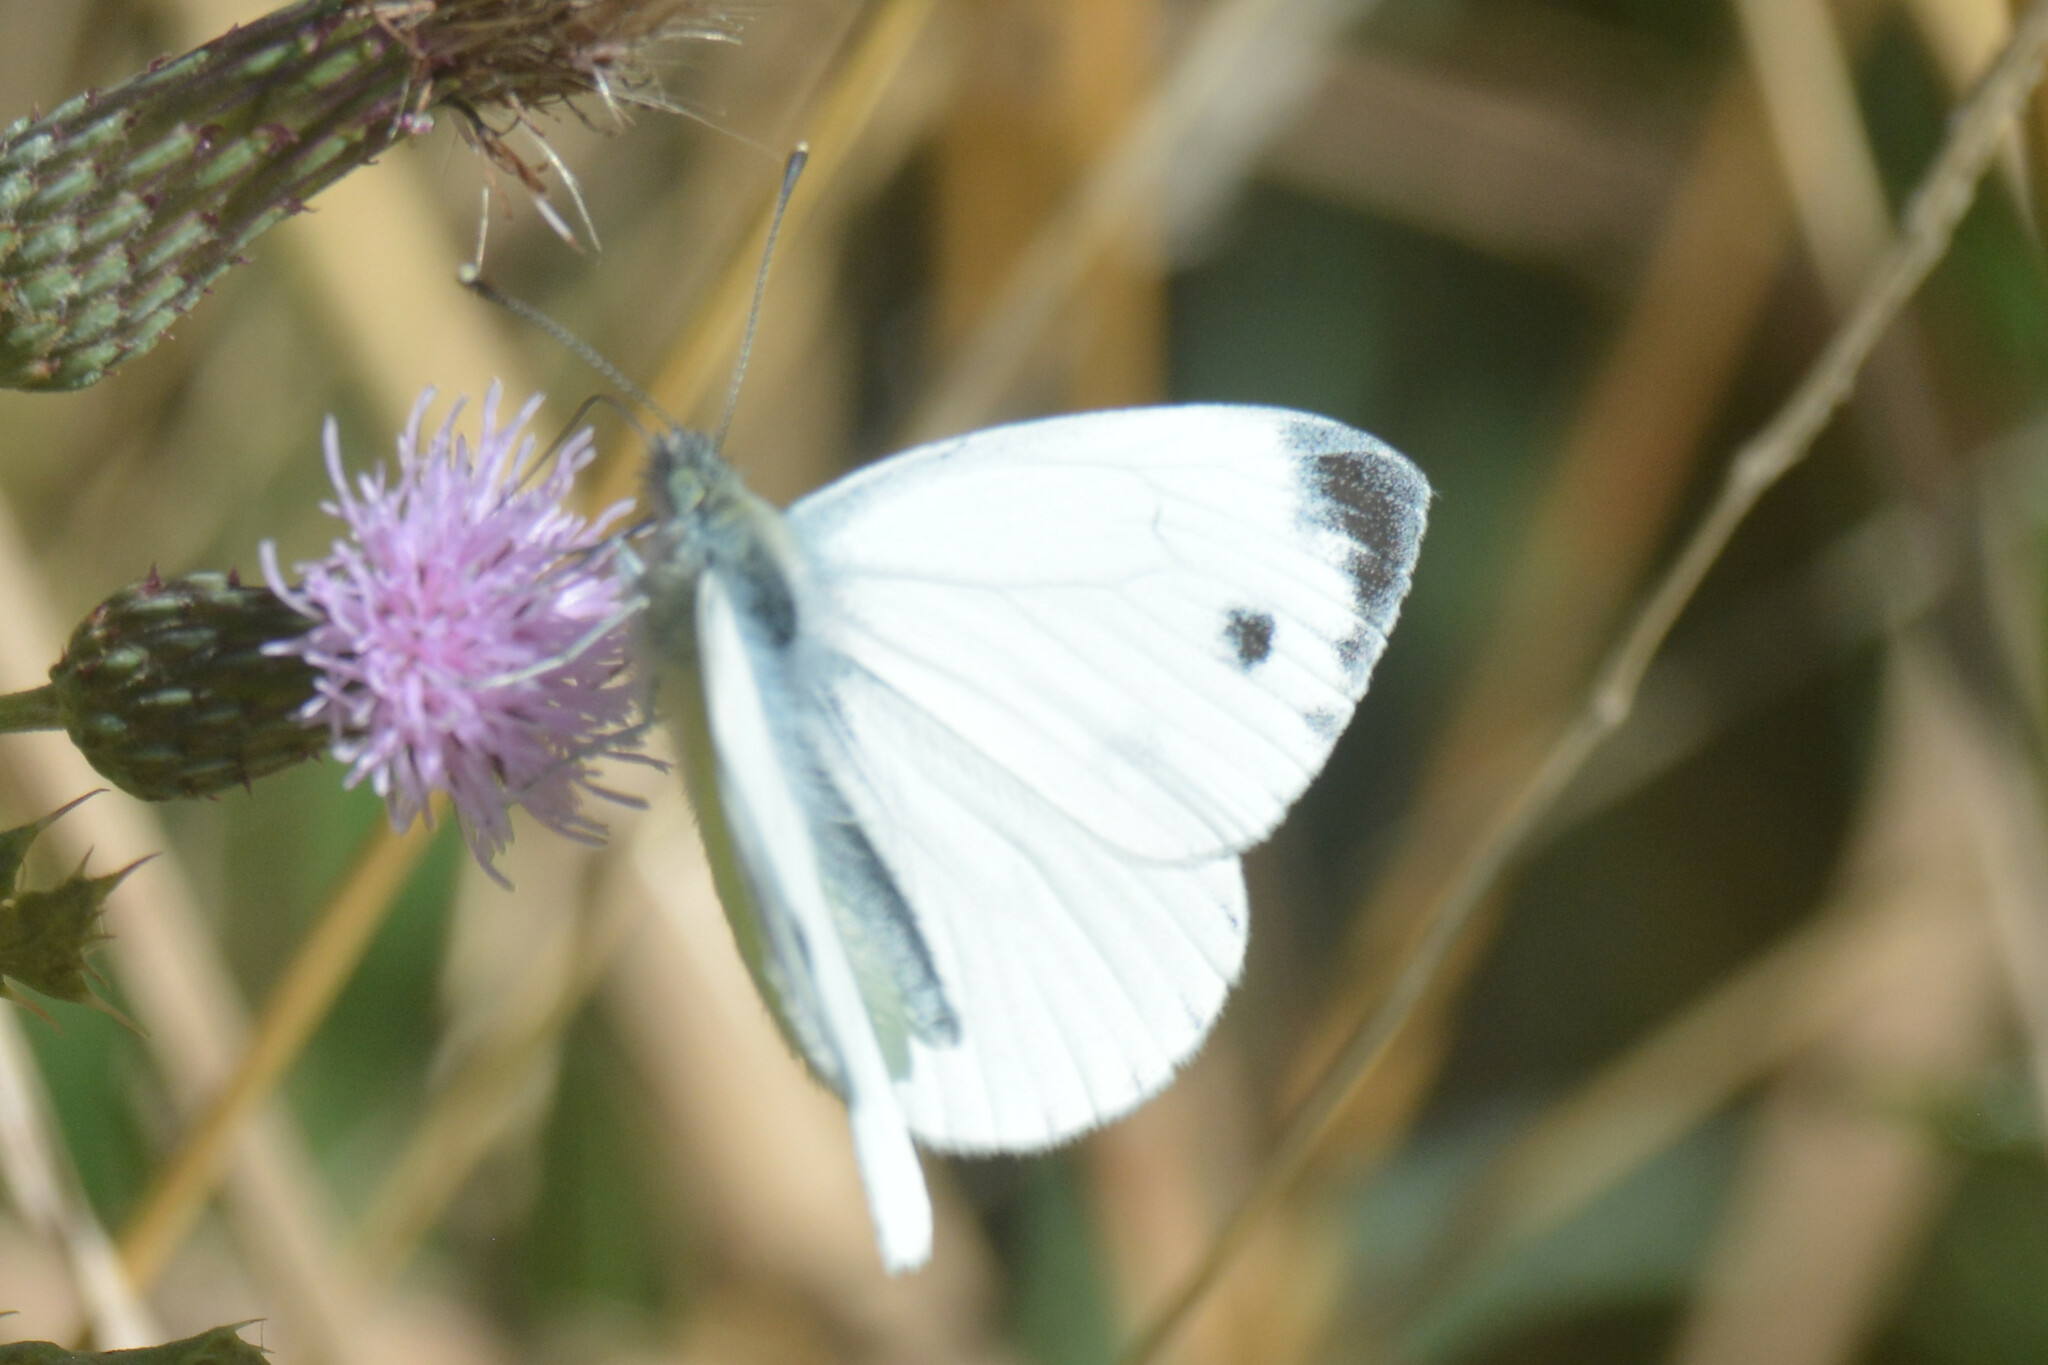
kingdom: Animalia
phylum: Arthropoda
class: Insecta
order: Lepidoptera
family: Pieridae
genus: Pieris
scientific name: Pieris napi
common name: Green-veined white
